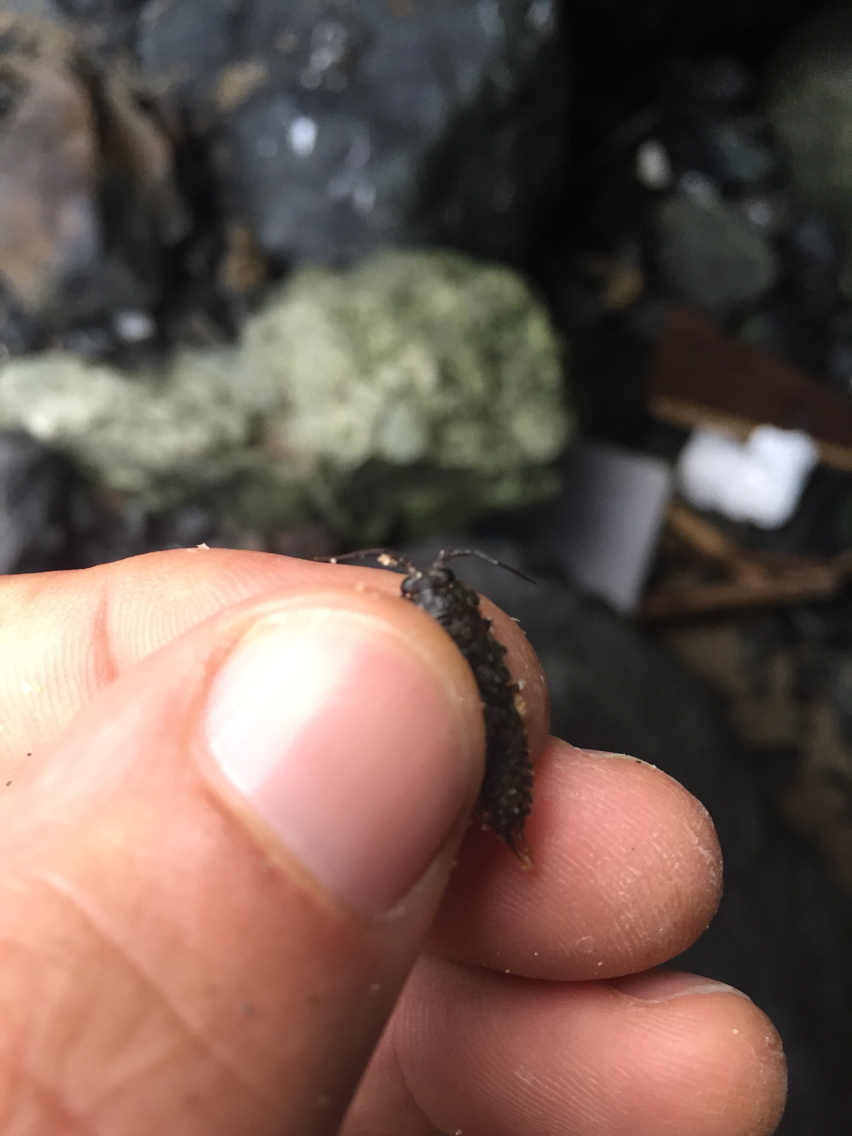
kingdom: Animalia
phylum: Arthropoda
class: Malacostraca
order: Isopoda
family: Ligiidae
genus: Ligia
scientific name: Ligia pallasii
